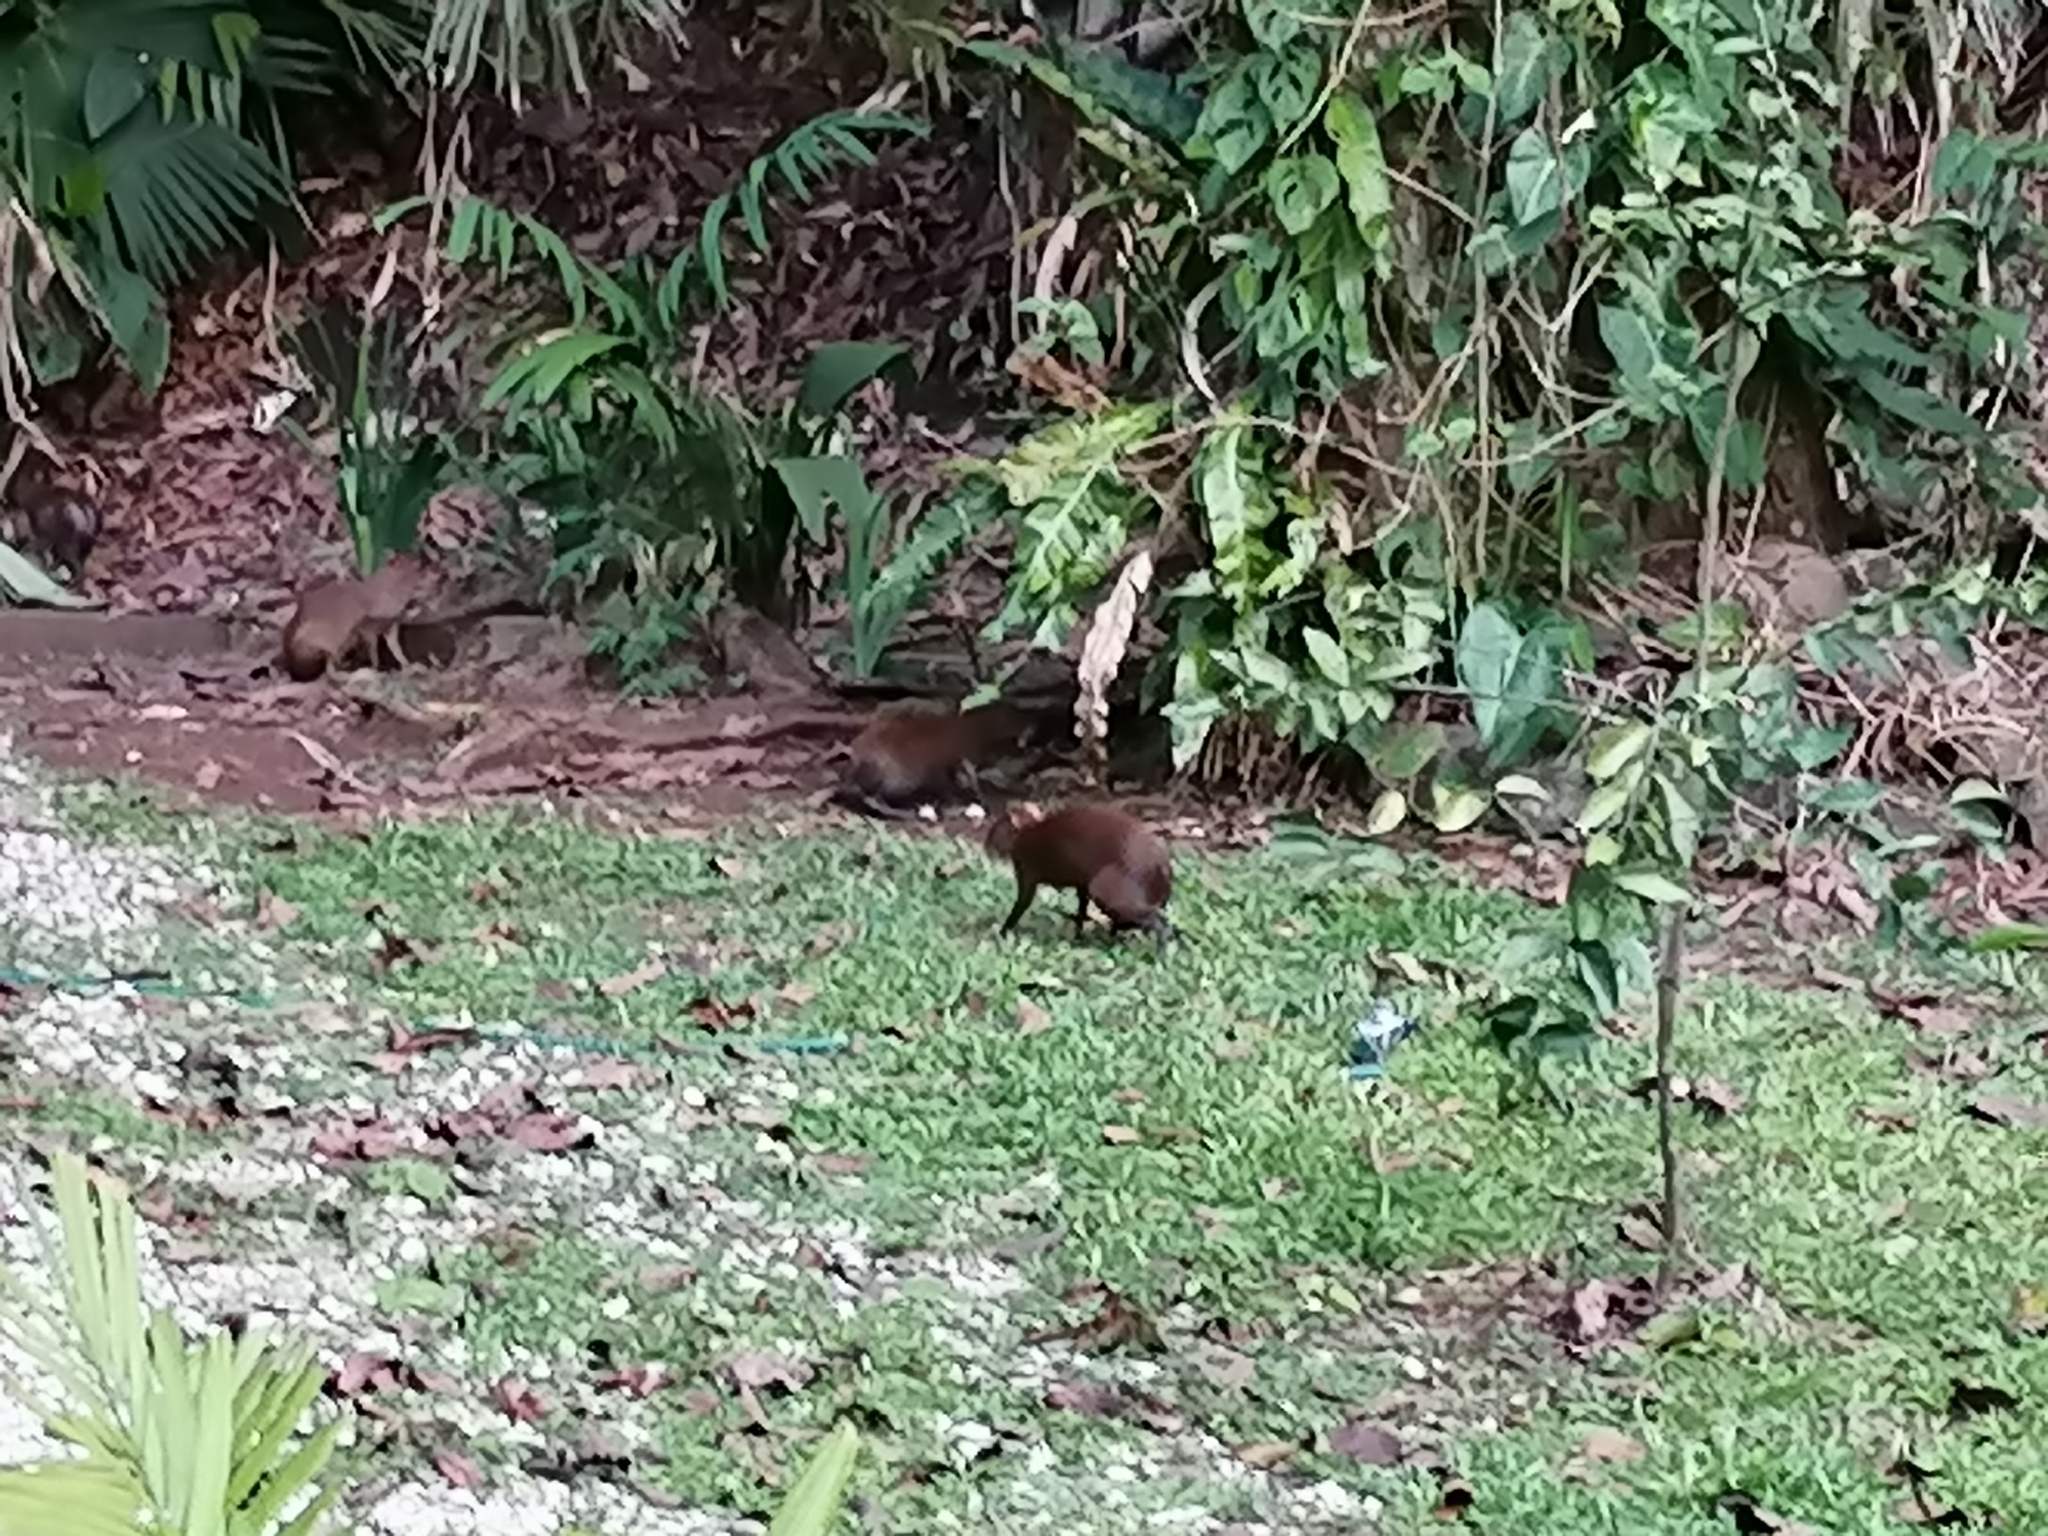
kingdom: Animalia
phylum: Chordata
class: Mammalia
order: Rodentia
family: Dasyproctidae
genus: Dasyprocta
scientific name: Dasyprocta punctata
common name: Central american agouti
